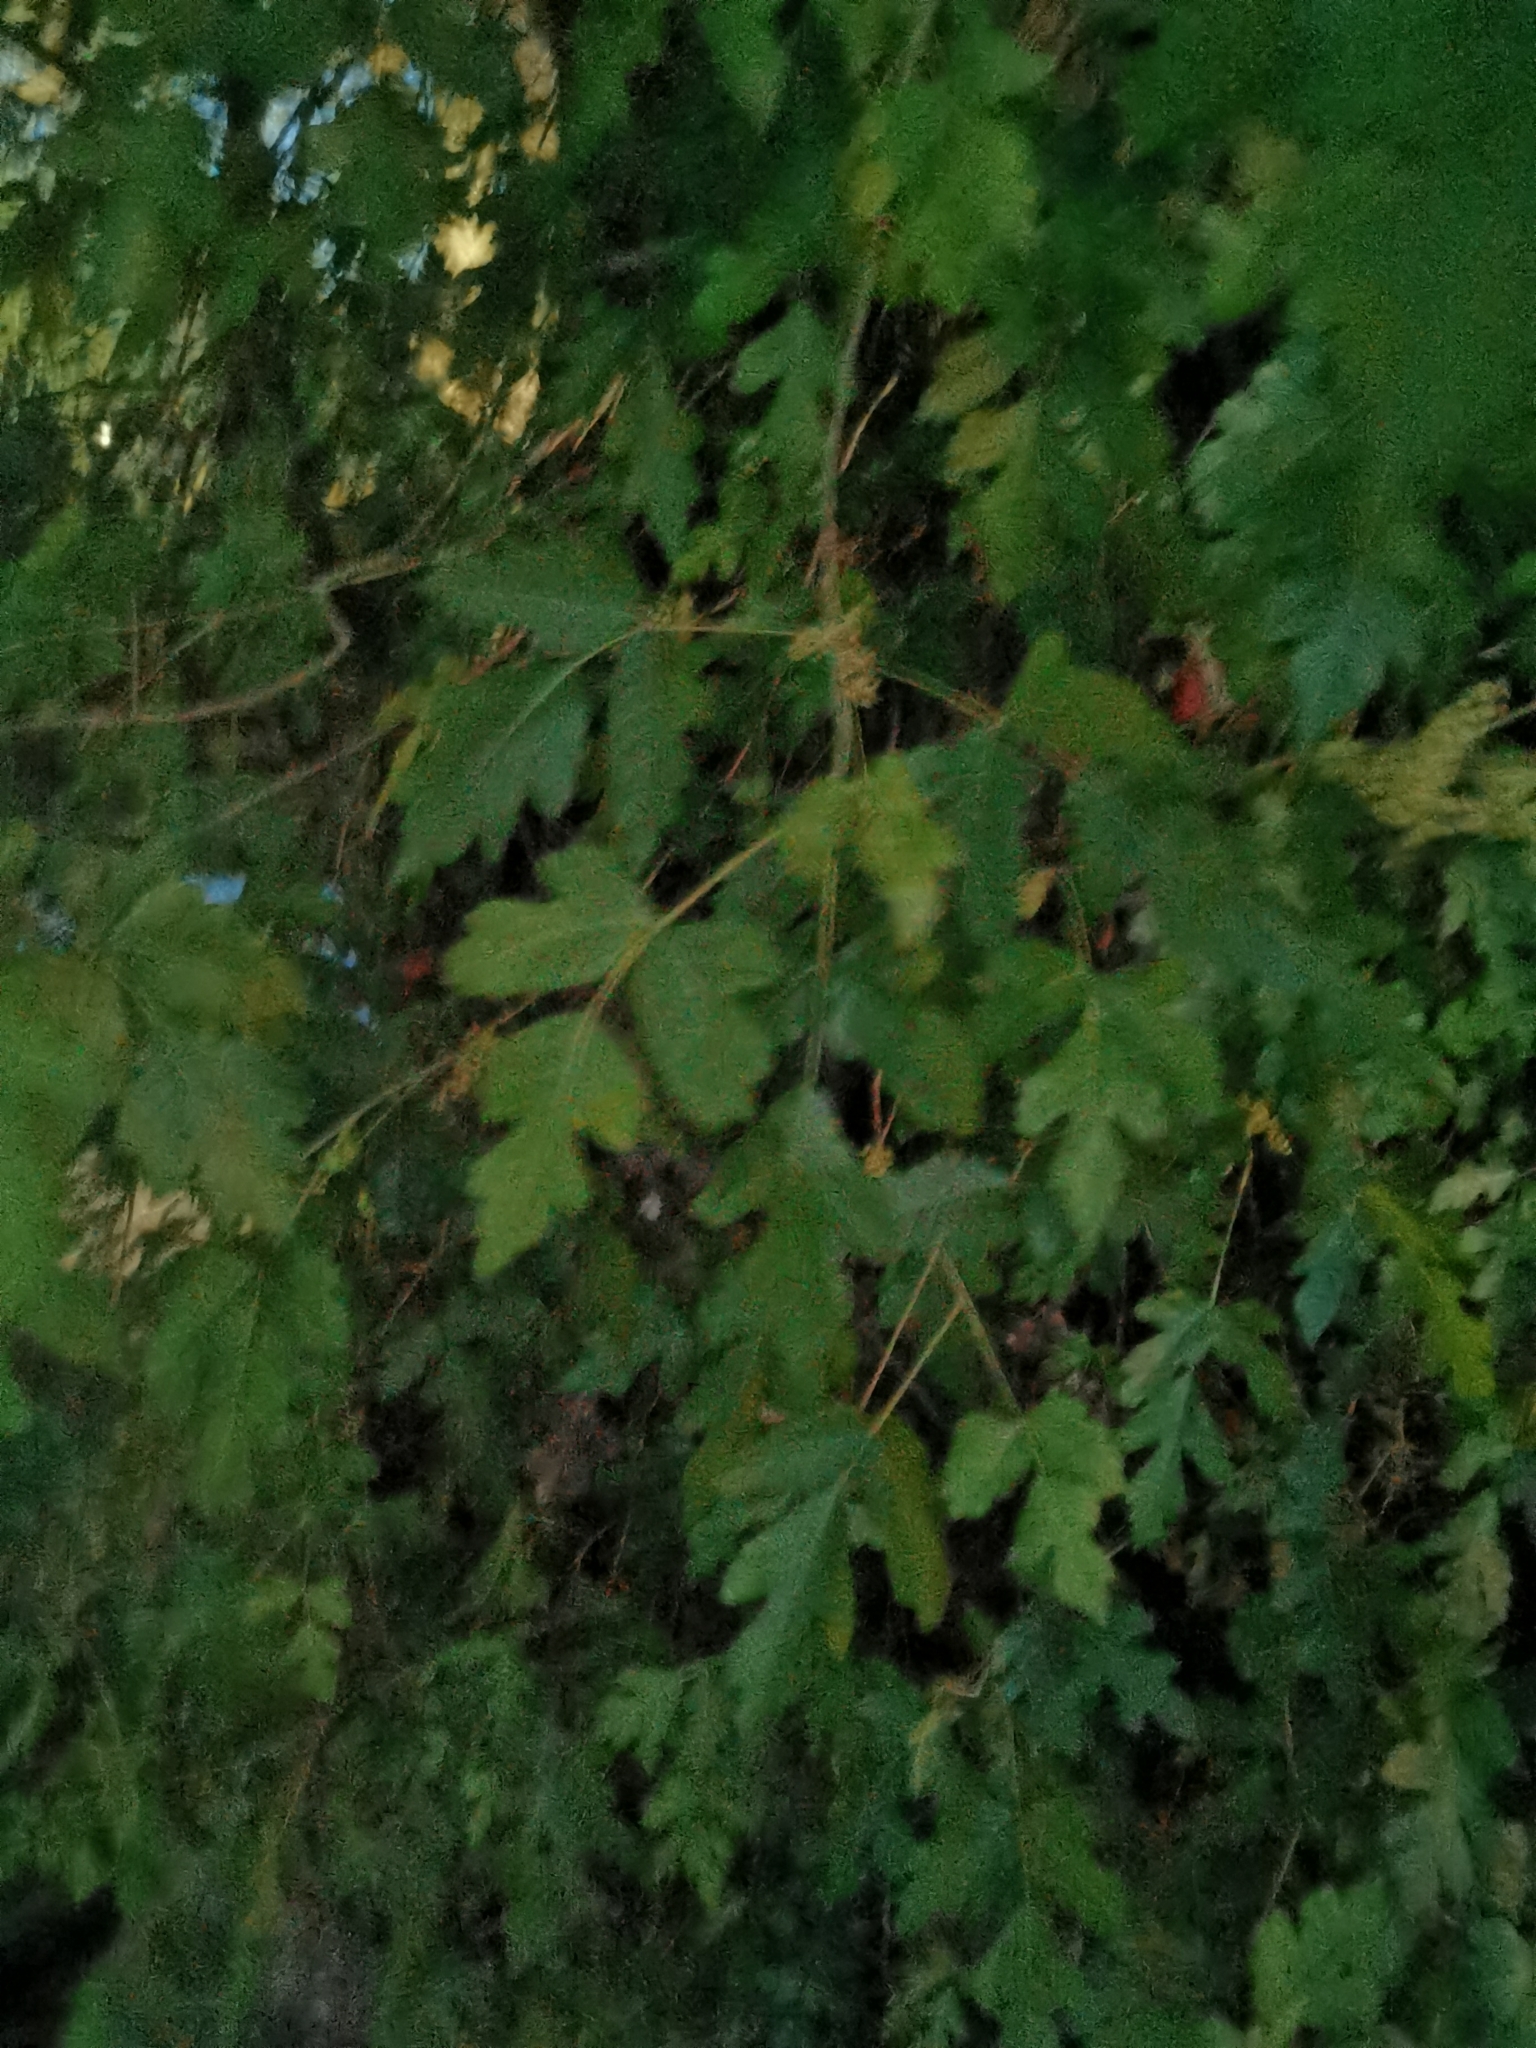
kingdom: Plantae
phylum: Tracheophyta
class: Magnoliopsida
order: Sapindales
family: Anacardiaceae
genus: Toxicodendron
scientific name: Toxicodendron radicans
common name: Poison ivy
